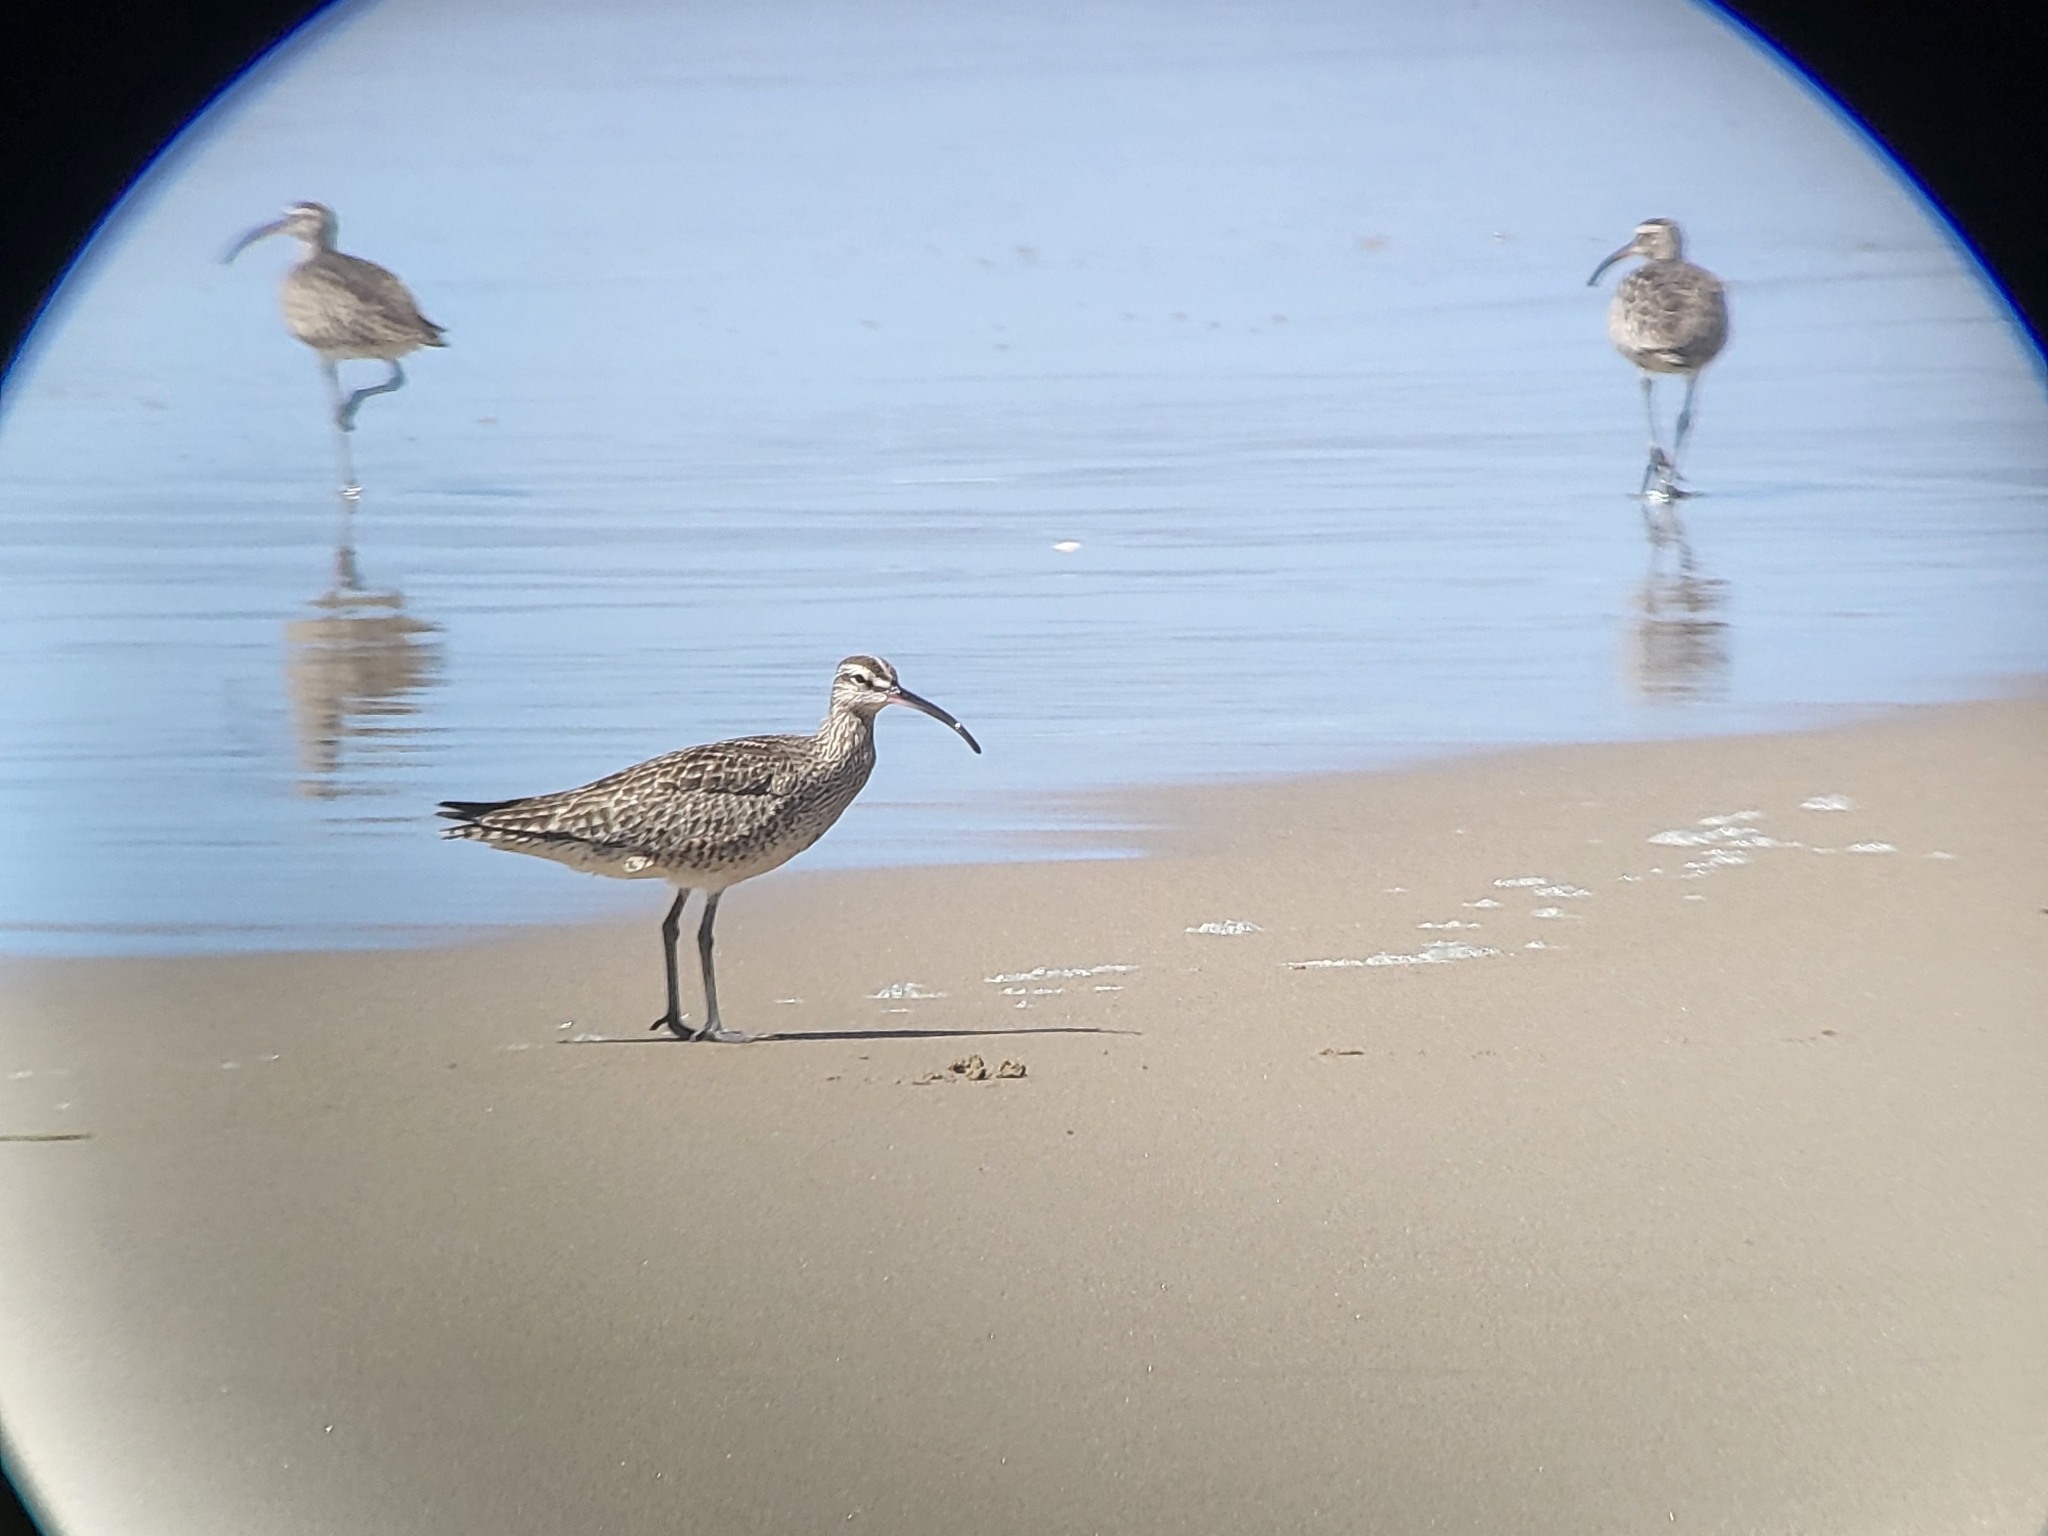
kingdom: Animalia
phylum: Chordata
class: Aves
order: Charadriiformes
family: Scolopacidae
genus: Numenius
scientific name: Numenius phaeopus
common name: Whimbrel
